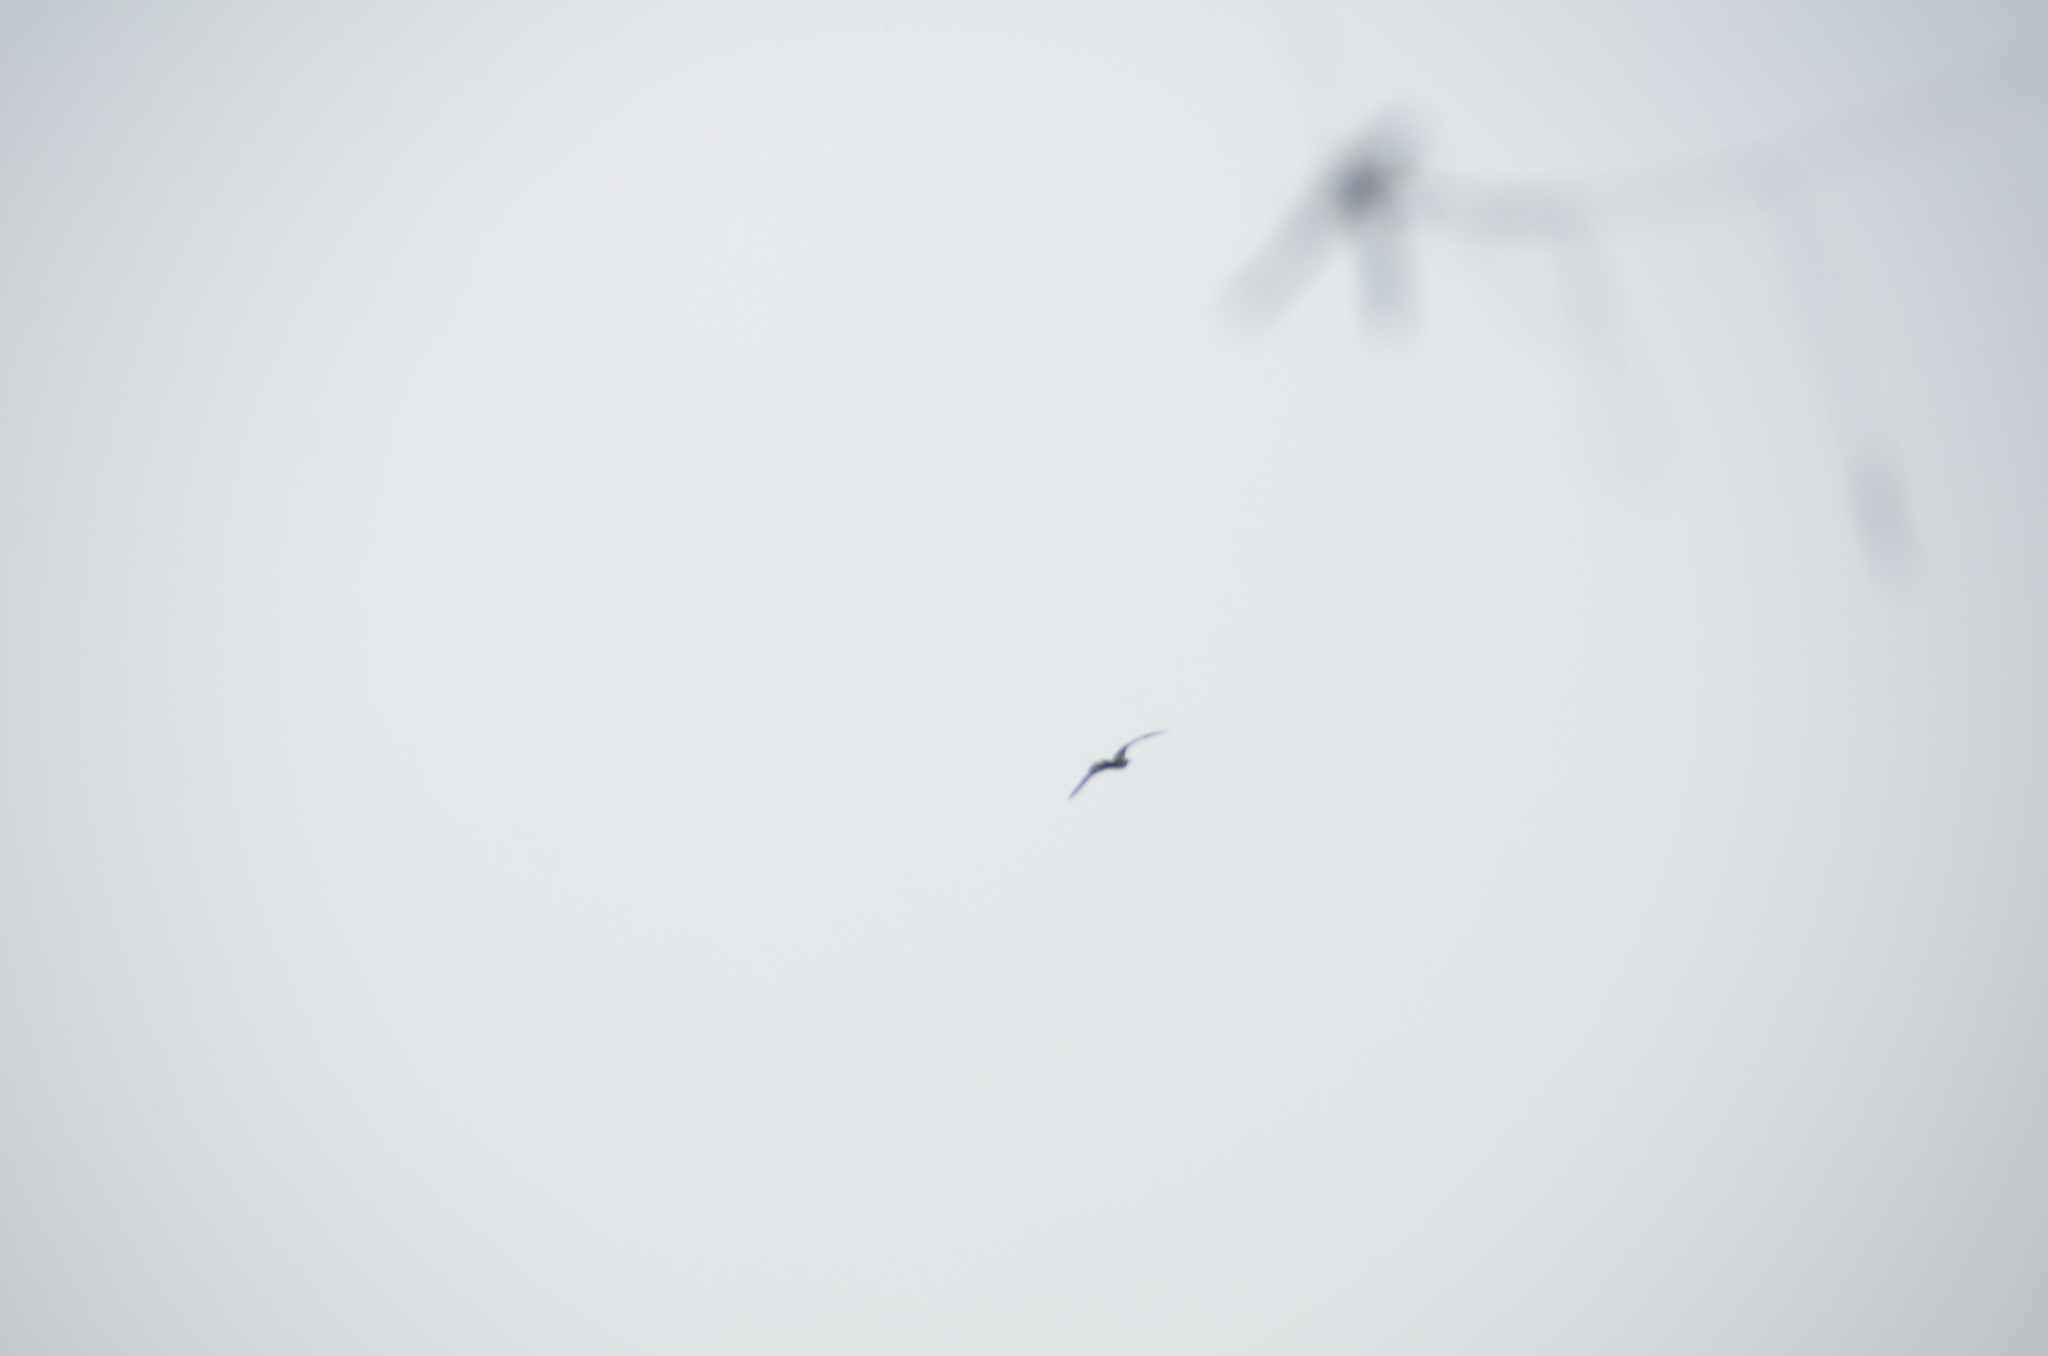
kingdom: Animalia
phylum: Chordata
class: Aves
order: Suliformes
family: Fregatidae
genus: Fregata
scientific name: Fregata magnificens
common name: Magnificent frigatebird
